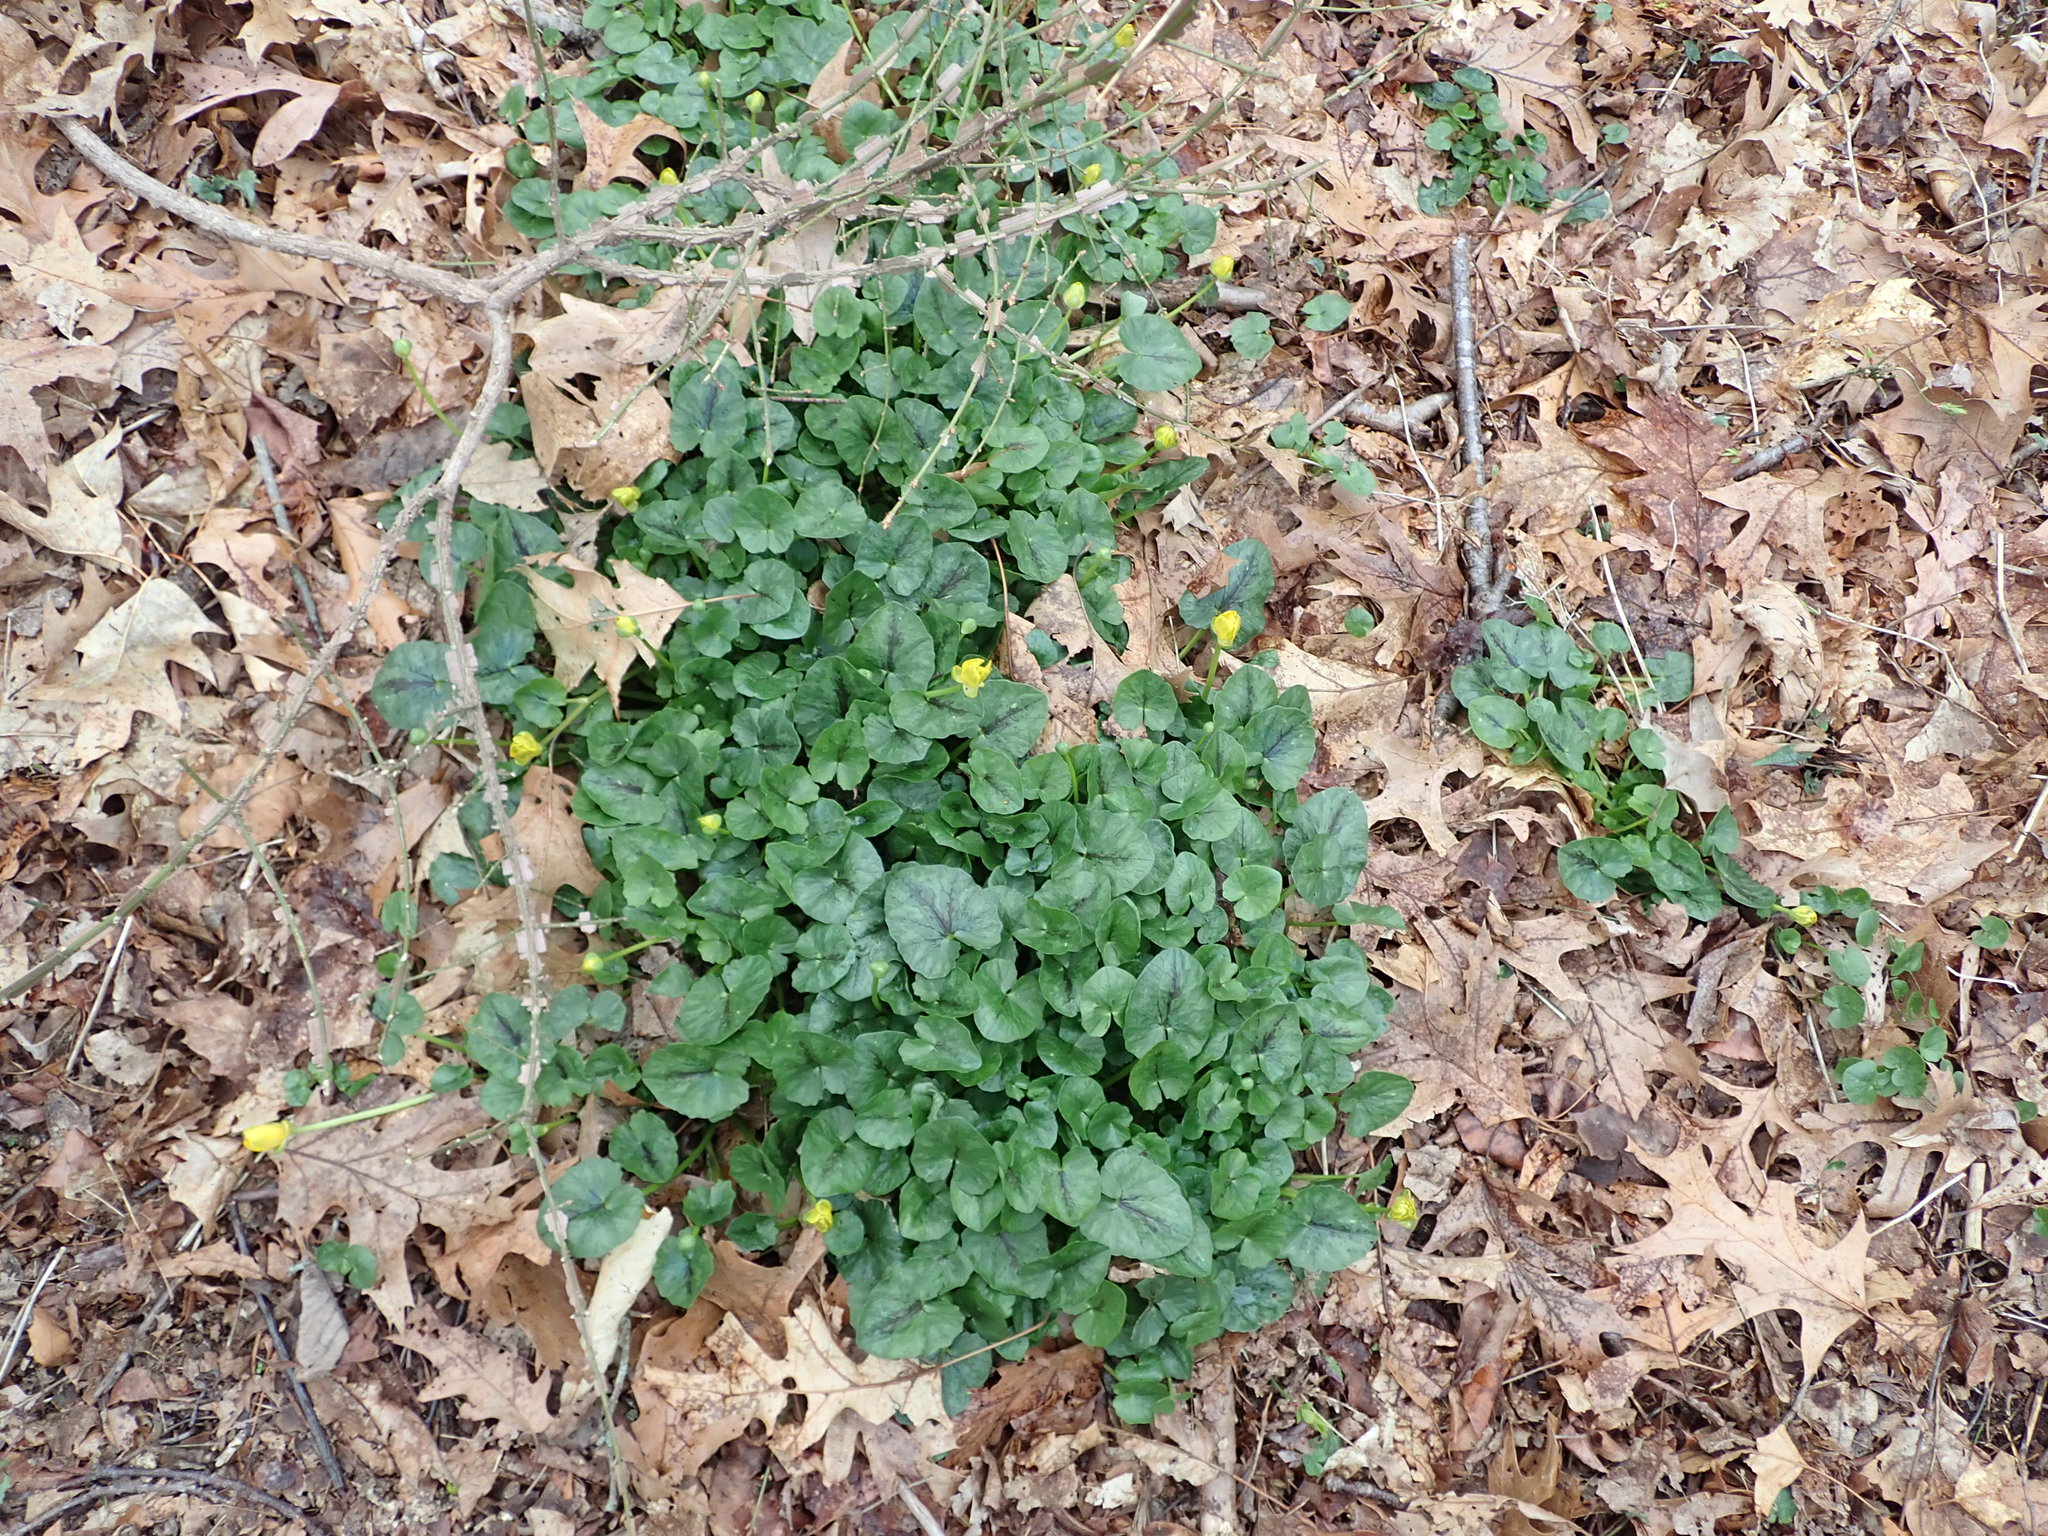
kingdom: Plantae
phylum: Tracheophyta
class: Magnoliopsida
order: Ranunculales
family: Ranunculaceae
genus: Ficaria
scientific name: Ficaria verna
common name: Lesser celandine
